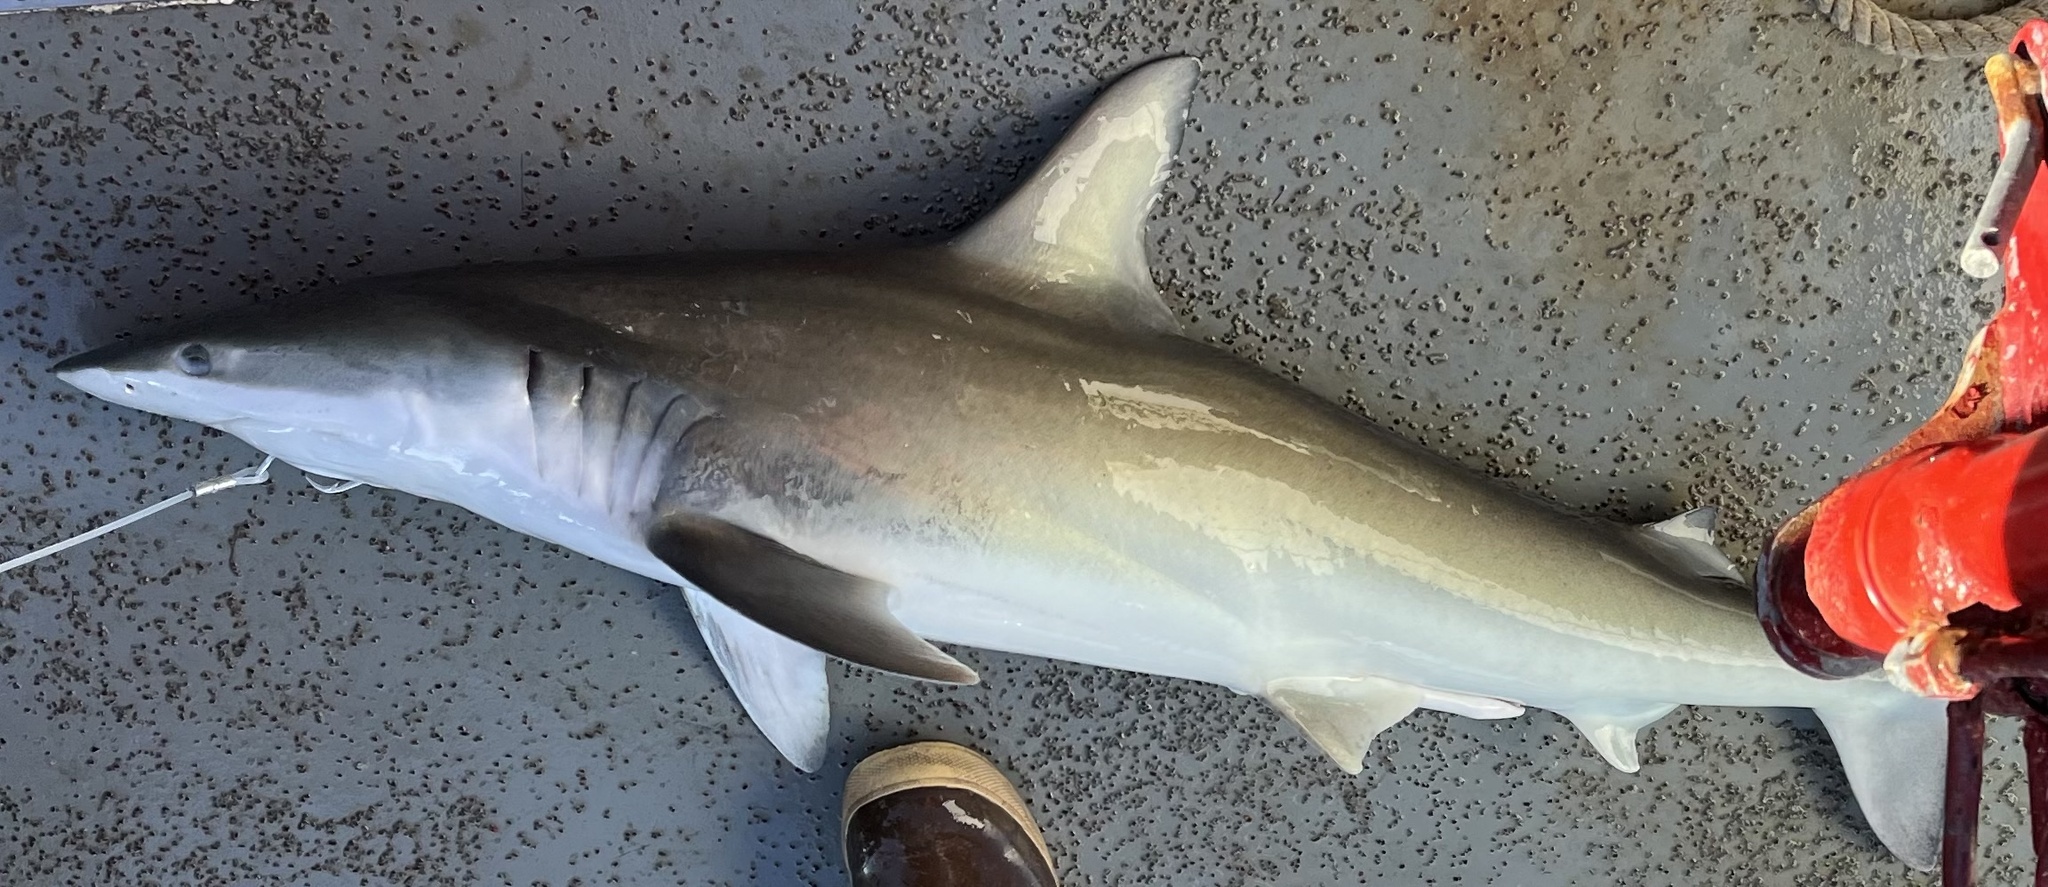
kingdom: Animalia
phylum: Chordata
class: Elasmobranchii
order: Carcharhiniformes
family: Carcharhinidae
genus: Carcharhinus
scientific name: Carcharhinus isodon
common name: Finetooth shark
